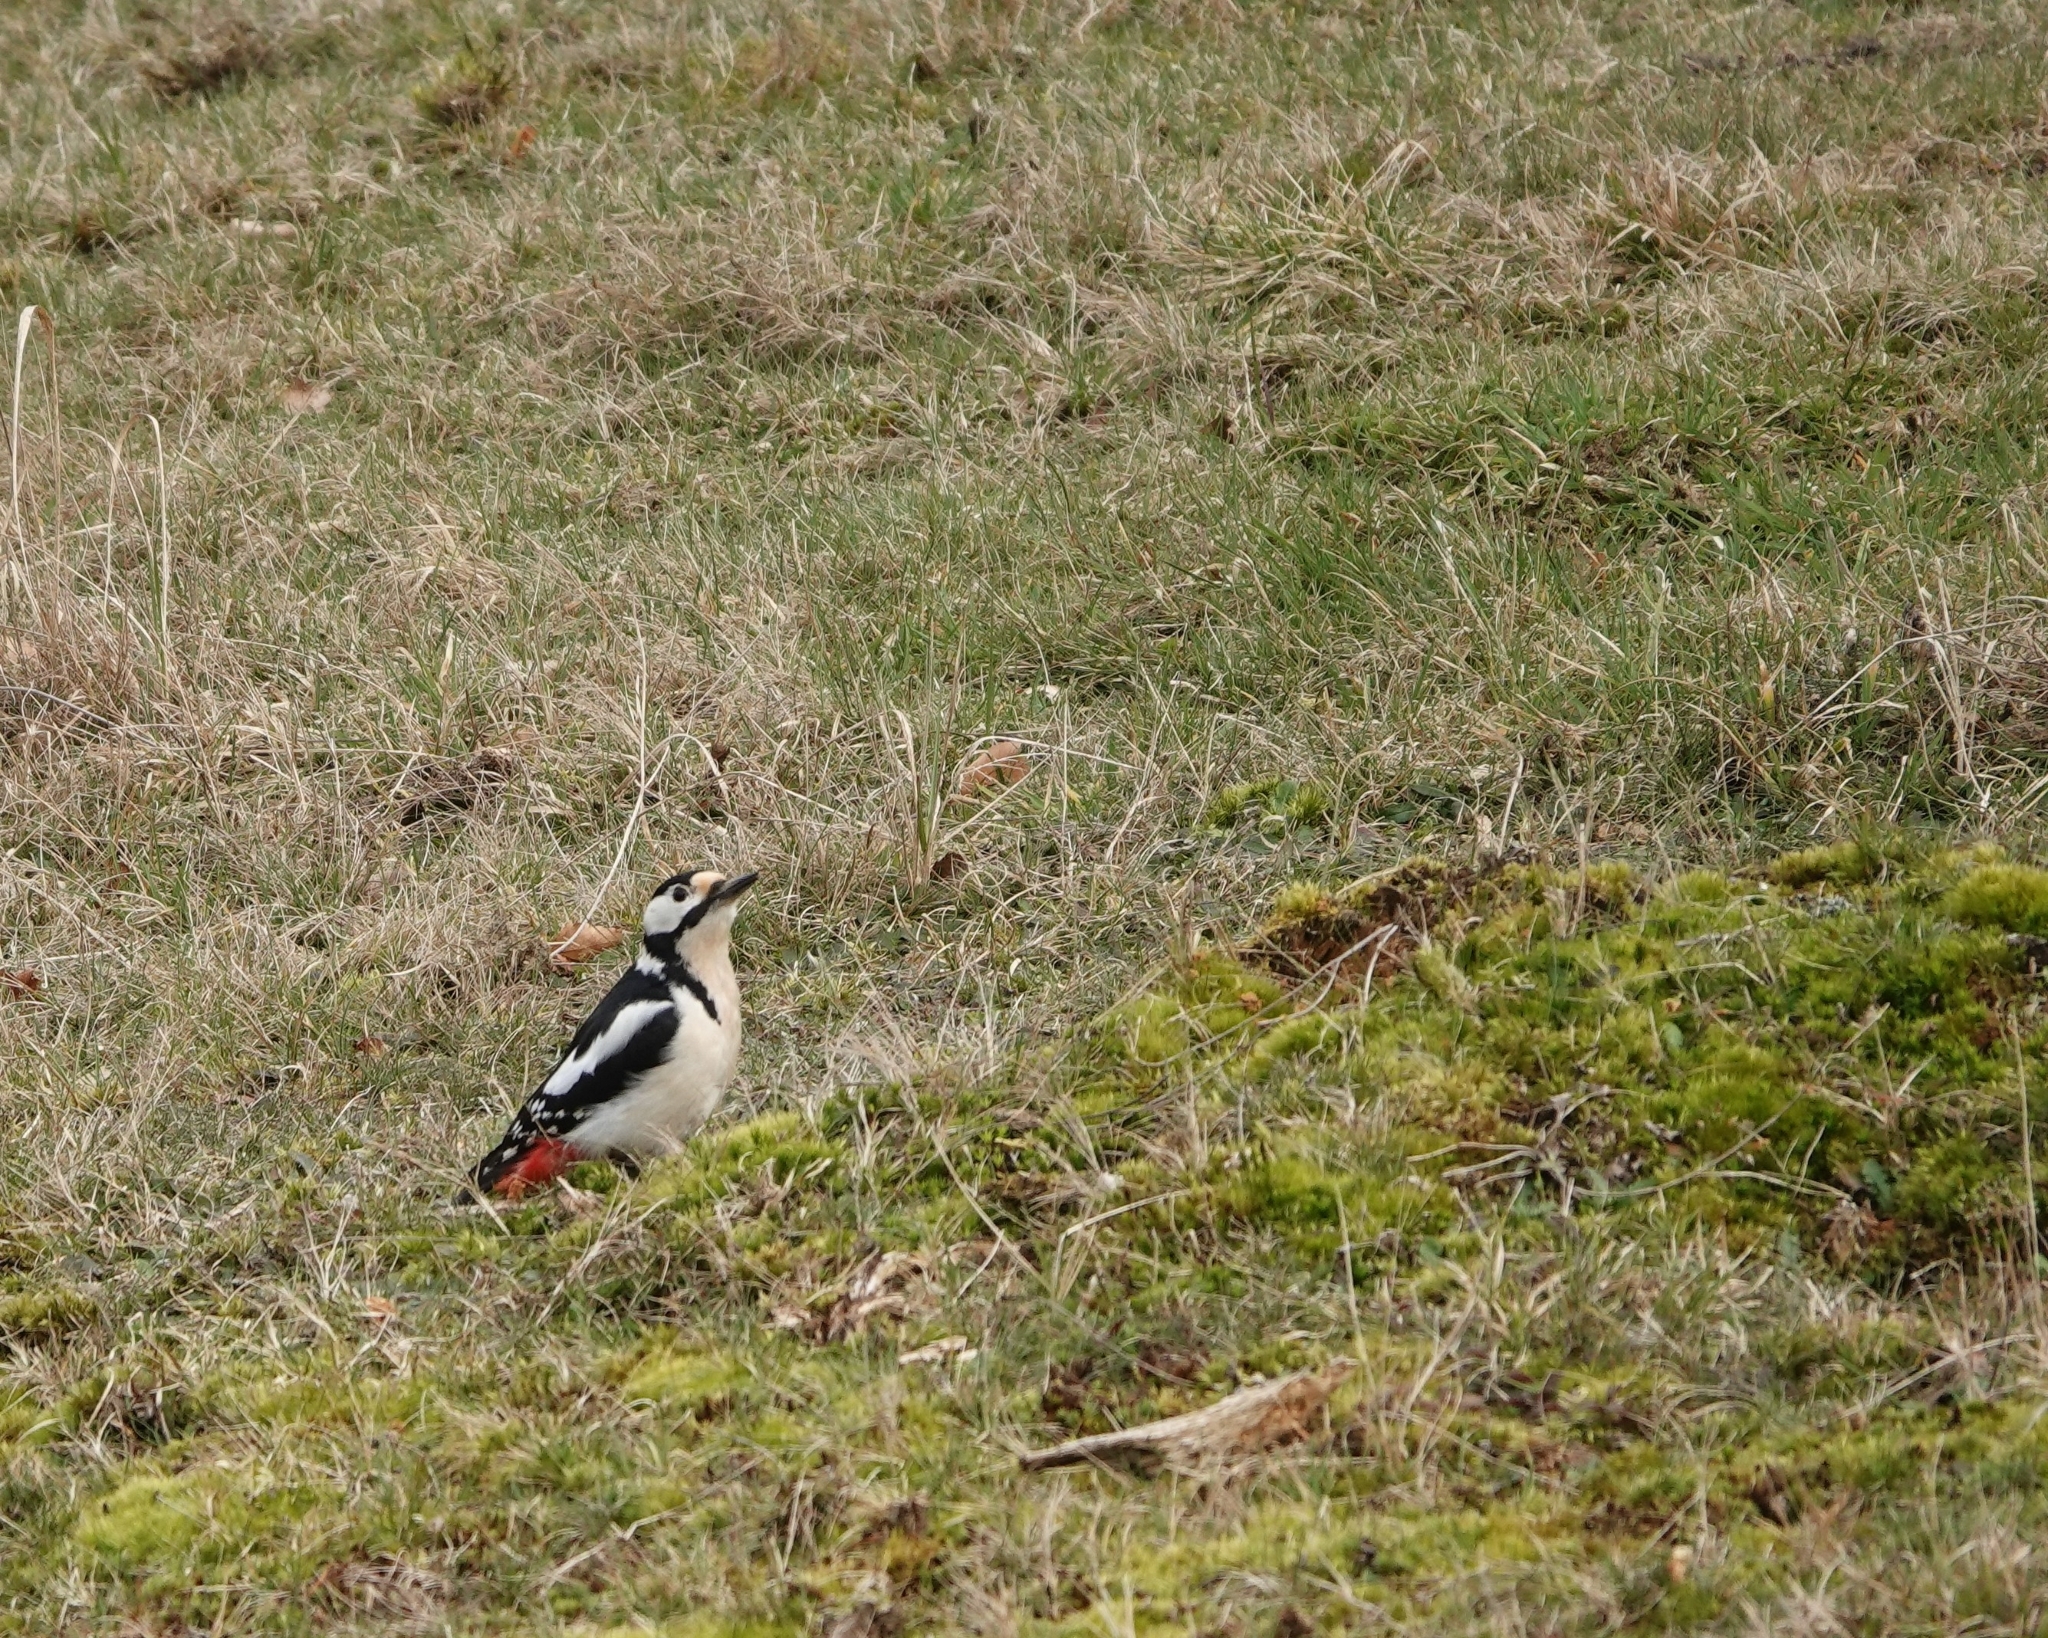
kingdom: Animalia
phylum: Chordata
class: Aves
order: Piciformes
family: Picidae
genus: Dendrocopos
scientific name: Dendrocopos major
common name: Great spotted woodpecker
